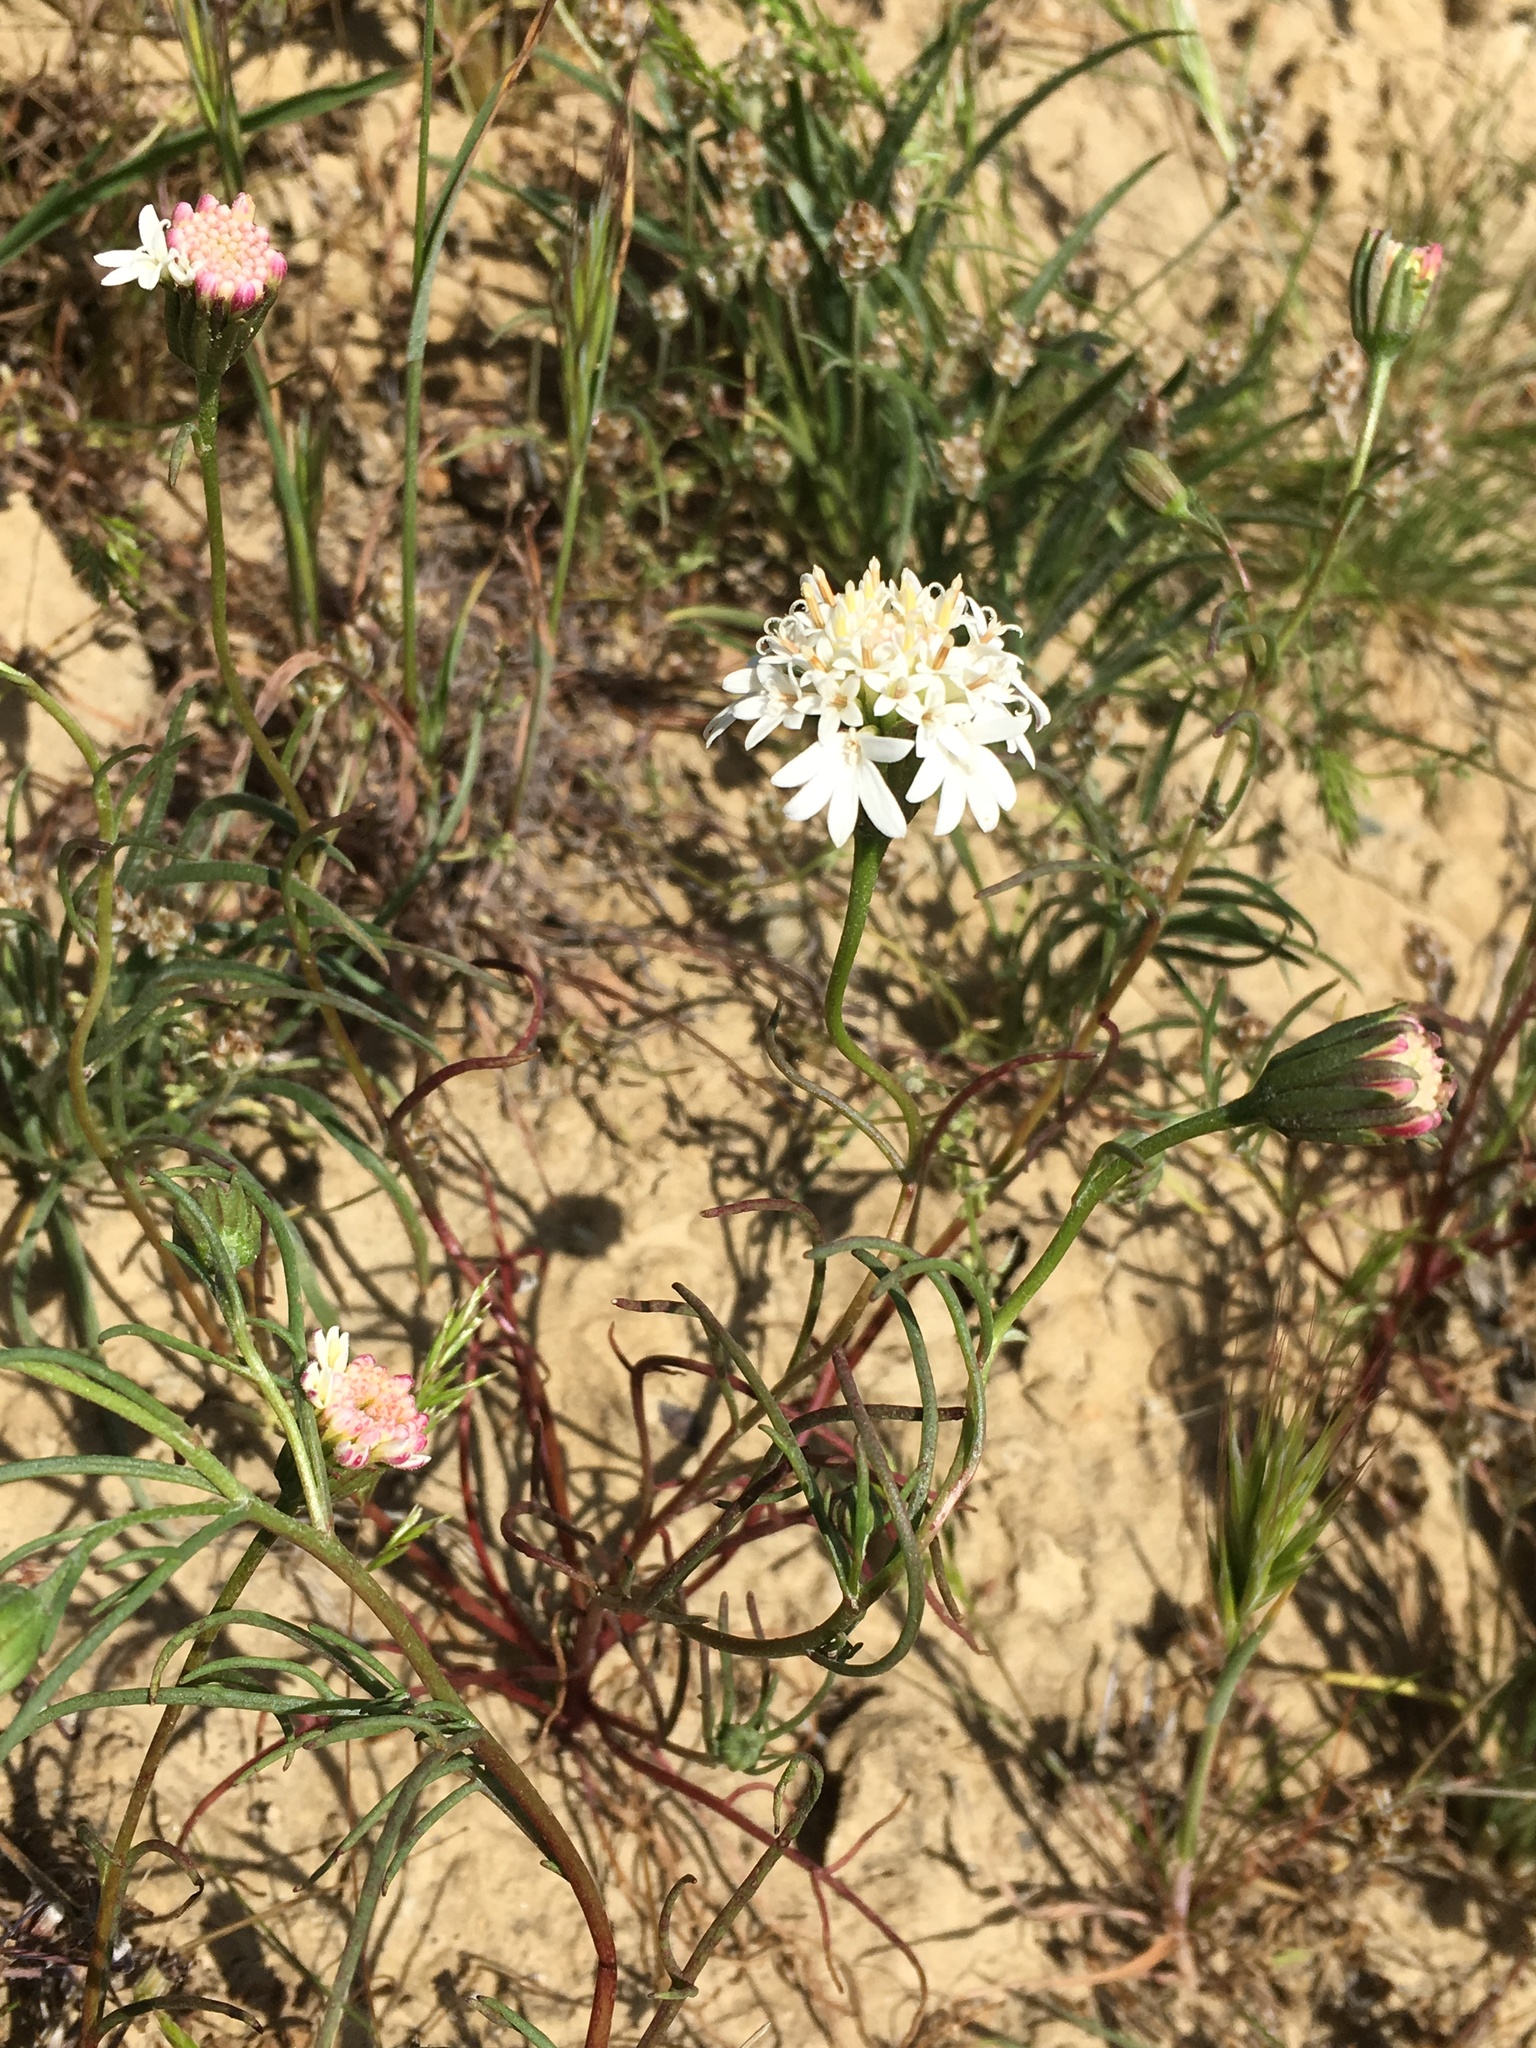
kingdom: Plantae
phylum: Tracheophyta
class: Magnoliopsida
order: Asterales
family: Asteraceae
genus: Chaenactis
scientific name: Chaenactis fremontii
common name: Fremont pincushion
